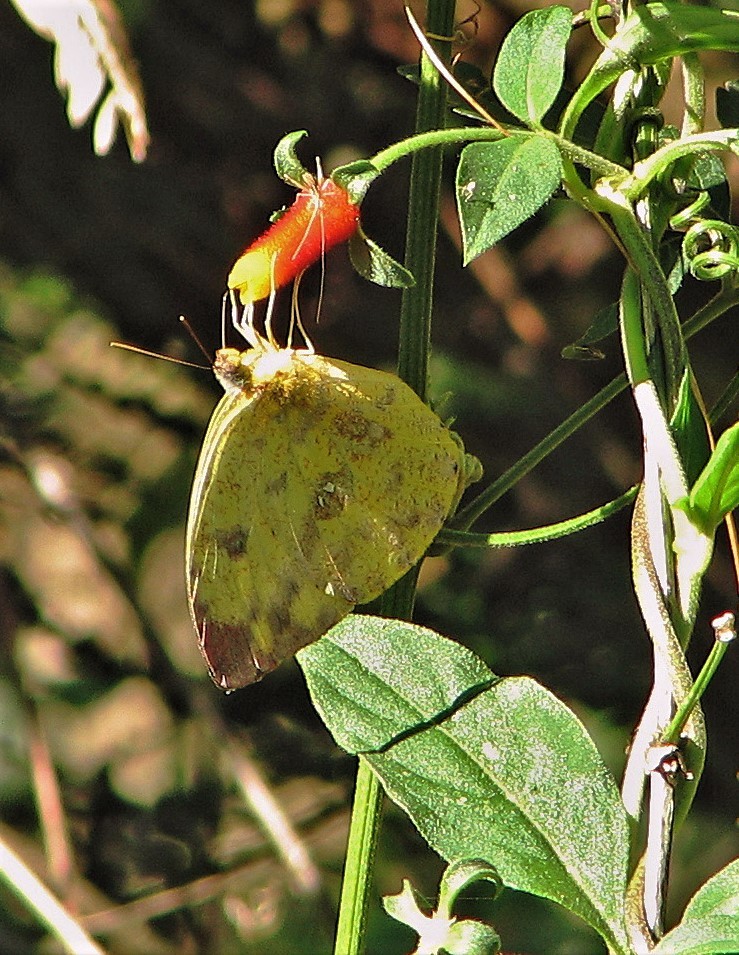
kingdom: Animalia
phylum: Arthropoda
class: Insecta
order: Lepidoptera
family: Pieridae
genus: Phoebis
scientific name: Phoebis argante
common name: Apricot sulphur
